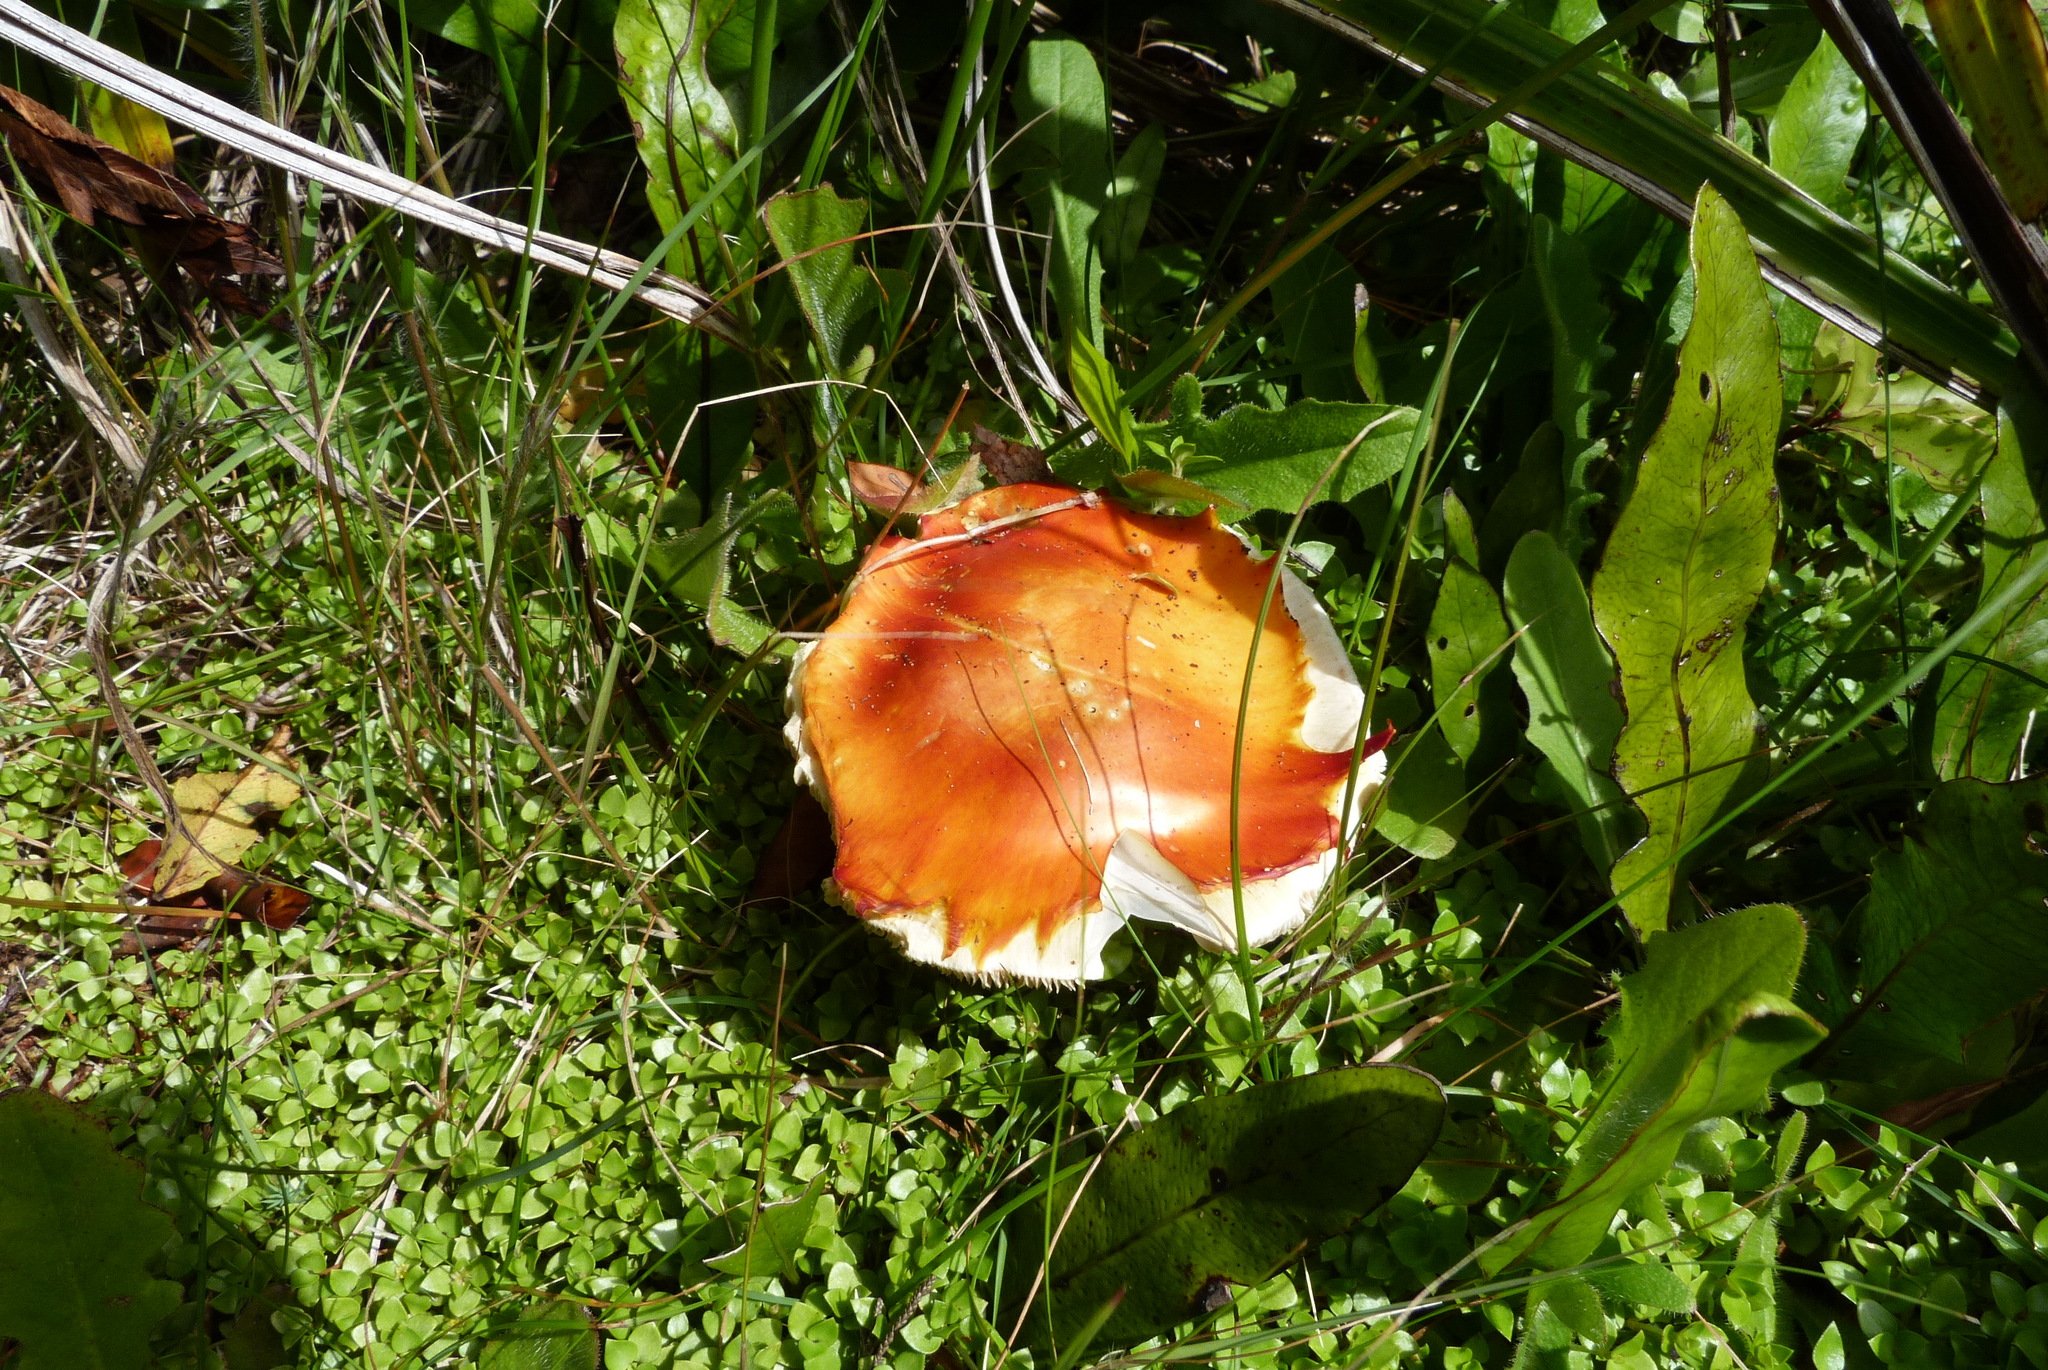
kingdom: Fungi
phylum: Basidiomycota
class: Agaricomycetes
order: Agaricales
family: Amanitaceae
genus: Amanita
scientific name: Amanita muscaria
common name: Fly agaric
